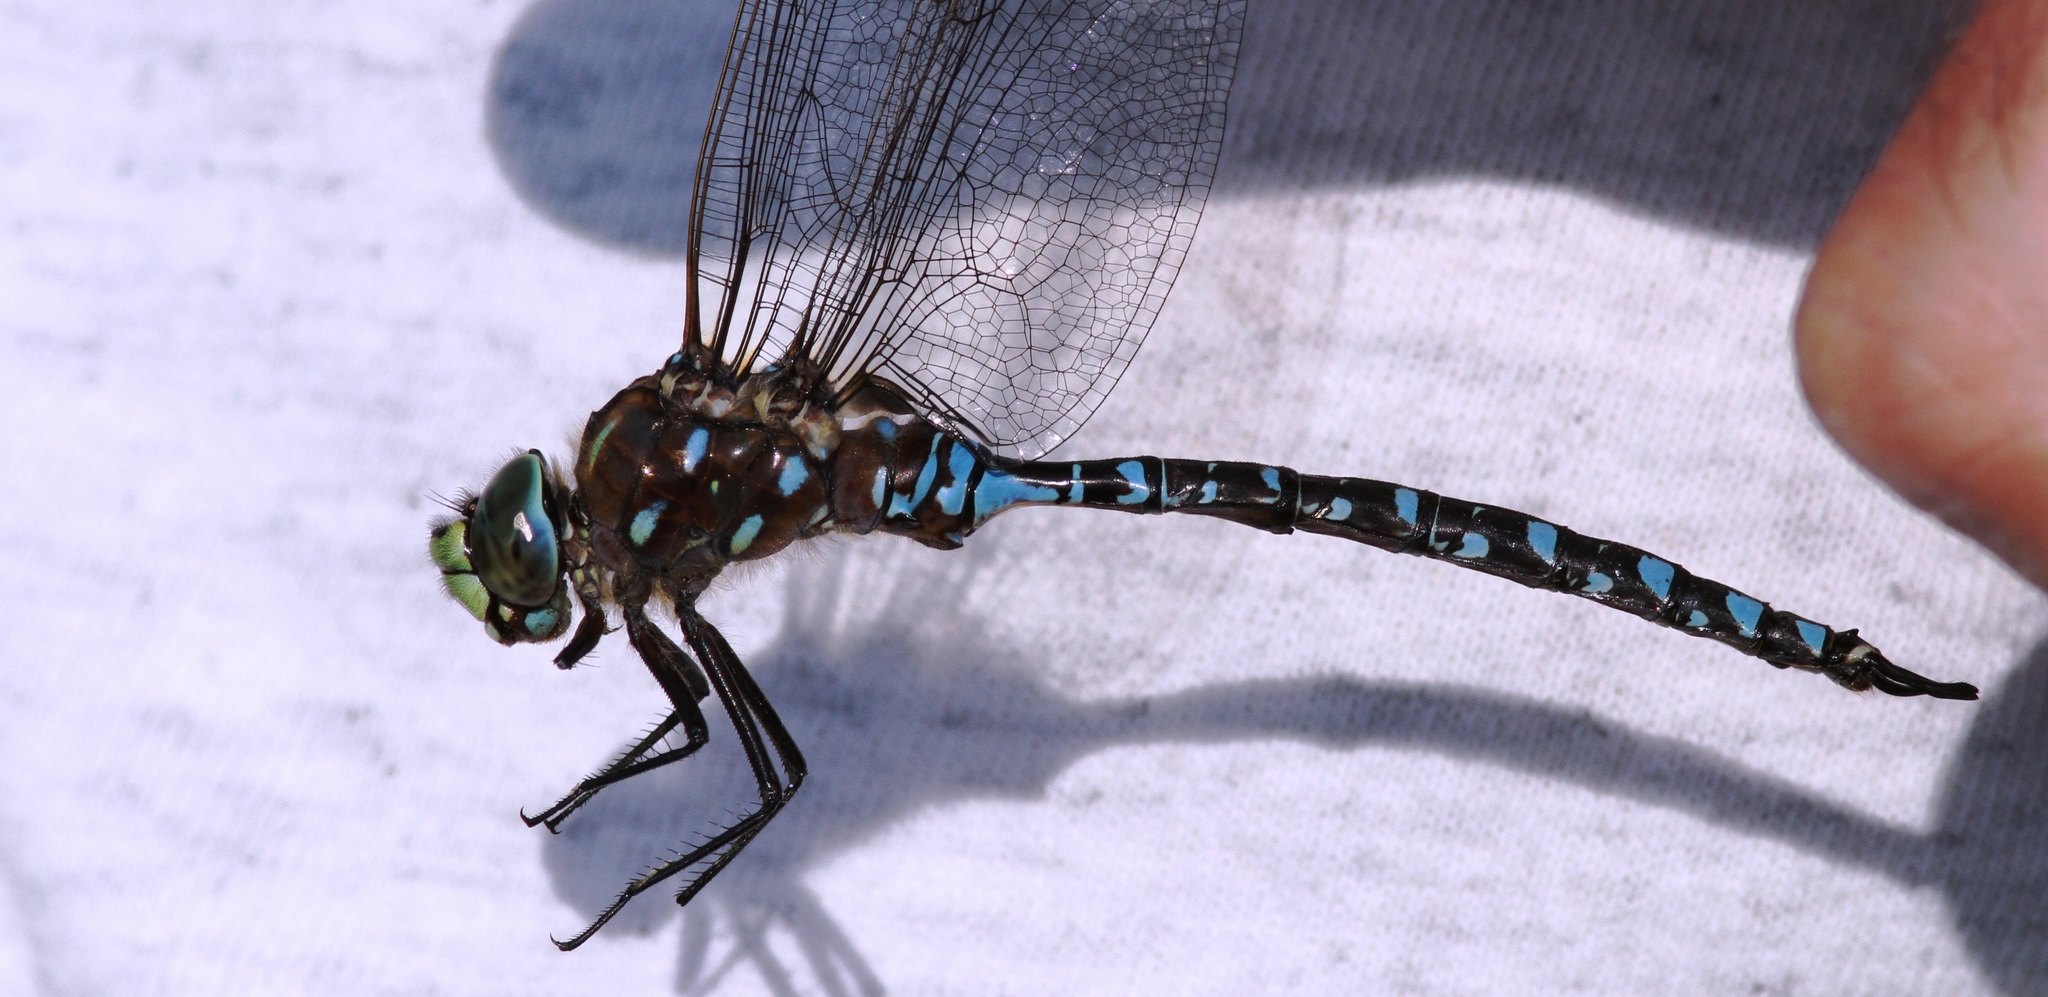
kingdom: Animalia
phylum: Arthropoda
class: Insecta
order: Odonata
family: Aeshnidae
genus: Aeshna
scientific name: Aeshna interrupta
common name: Variable darner
